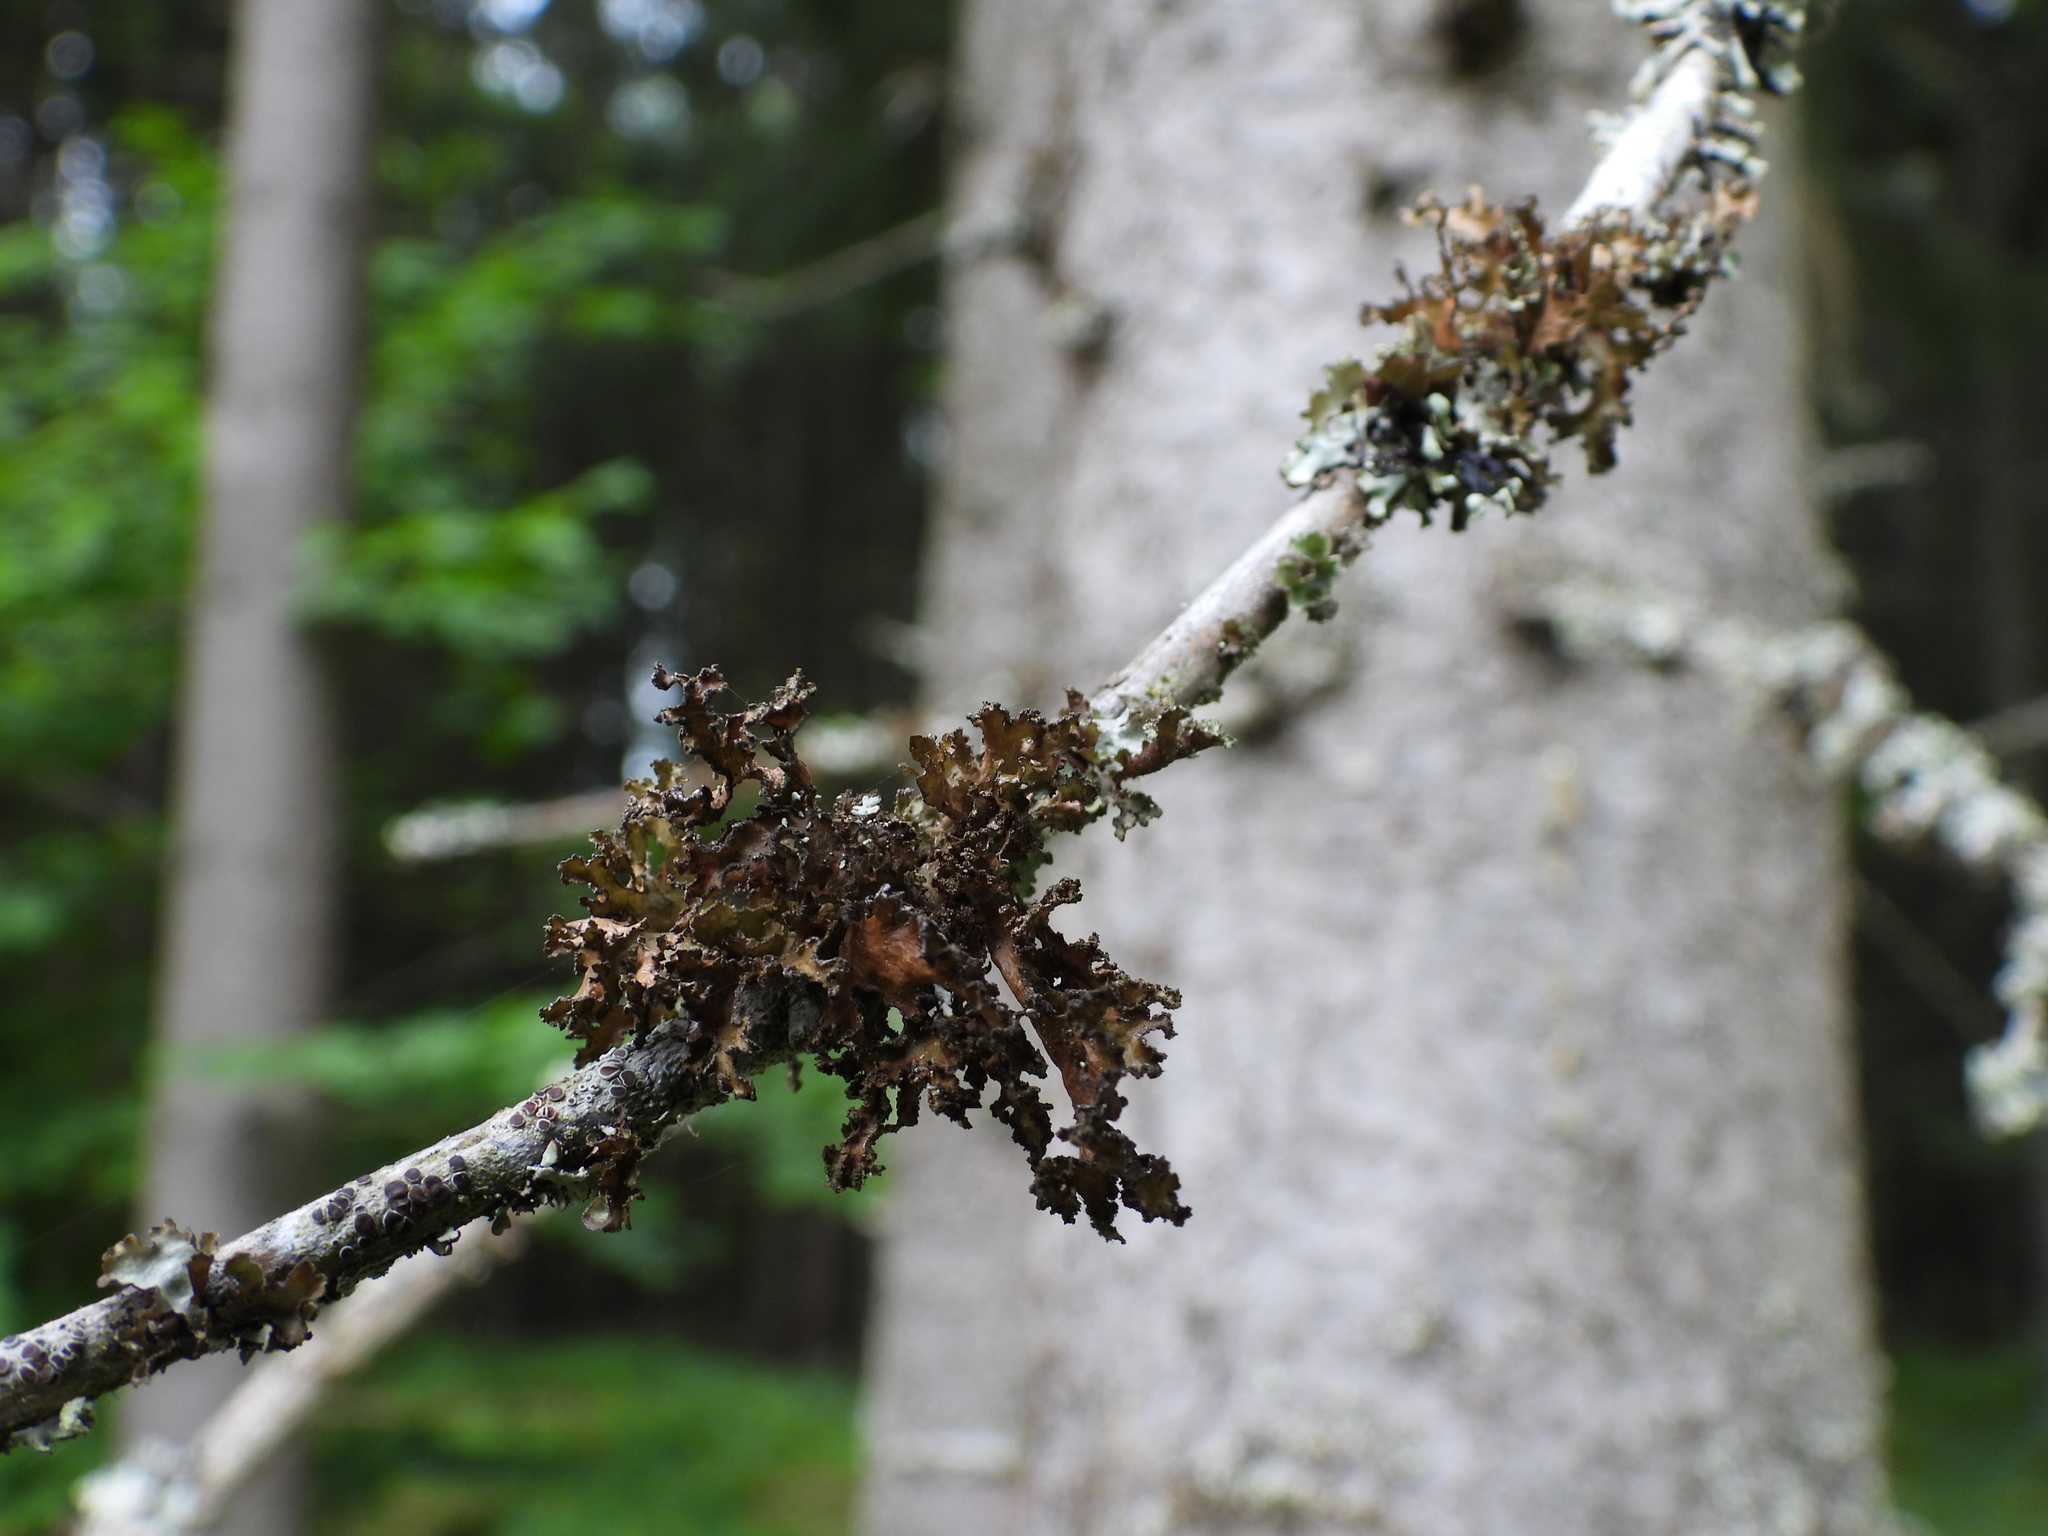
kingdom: Fungi
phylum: Ascomycota
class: Lecanoromycetes
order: Lecanorales
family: Parmeliaceae
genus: Nephromopsis
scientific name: Nephromopsis chlorophylla
